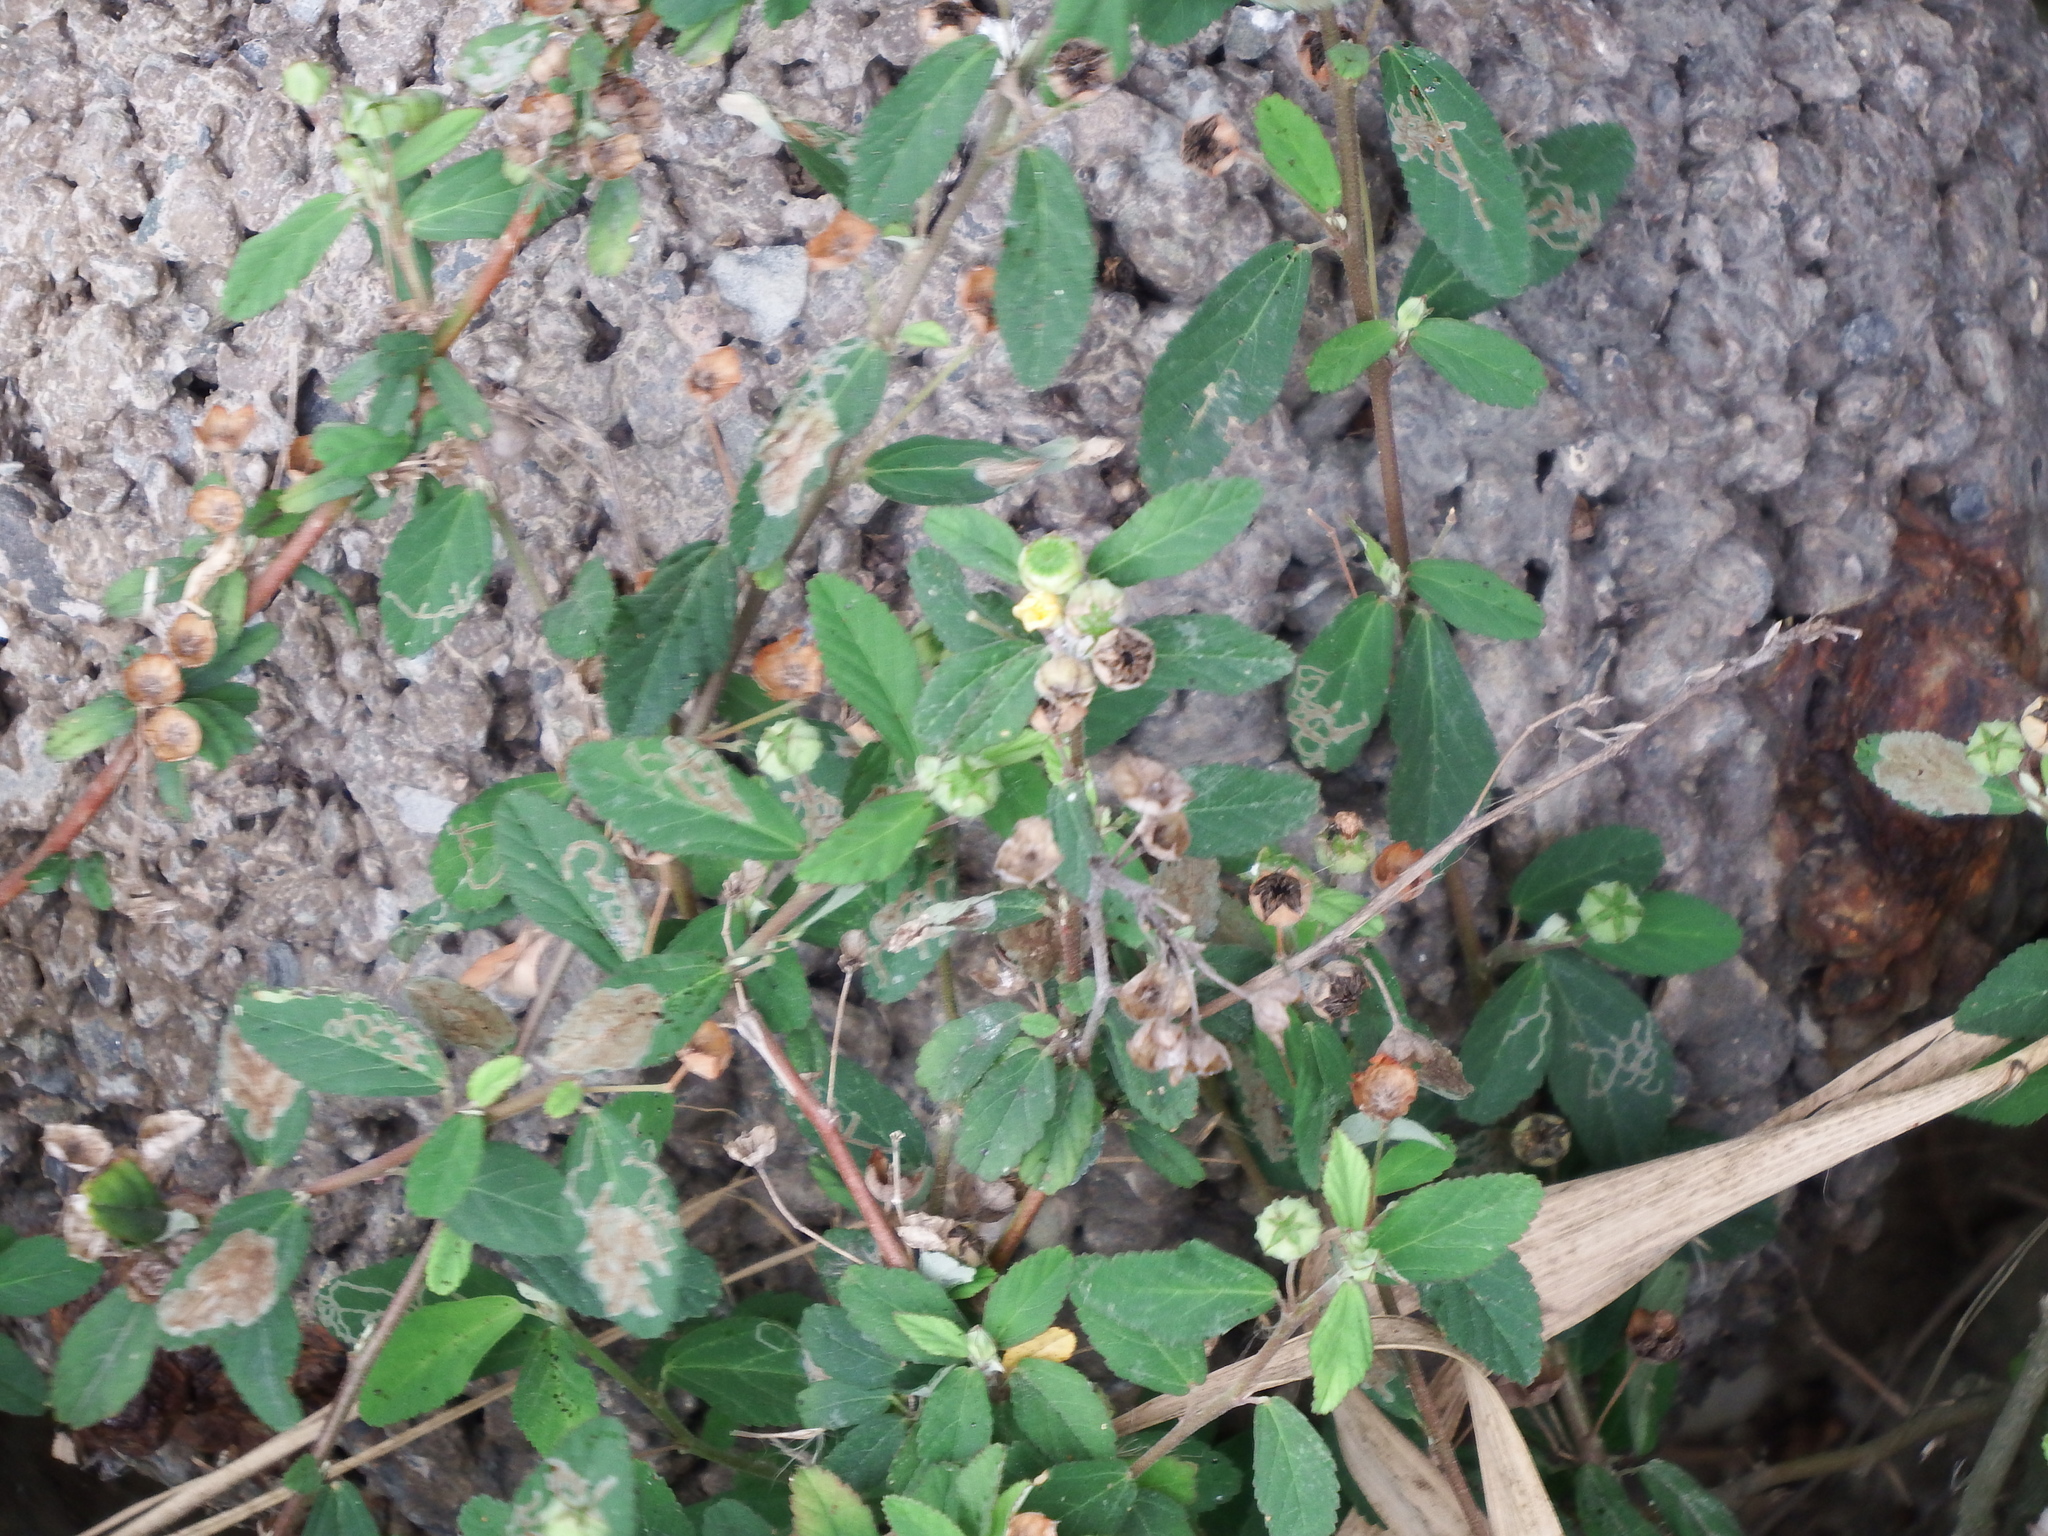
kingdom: Plantae
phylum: Tracheophyta
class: Magnoliopsida
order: Malvales
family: Malvaceae
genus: Sida
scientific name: Sida rhombifolia
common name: Queensland-hemp
